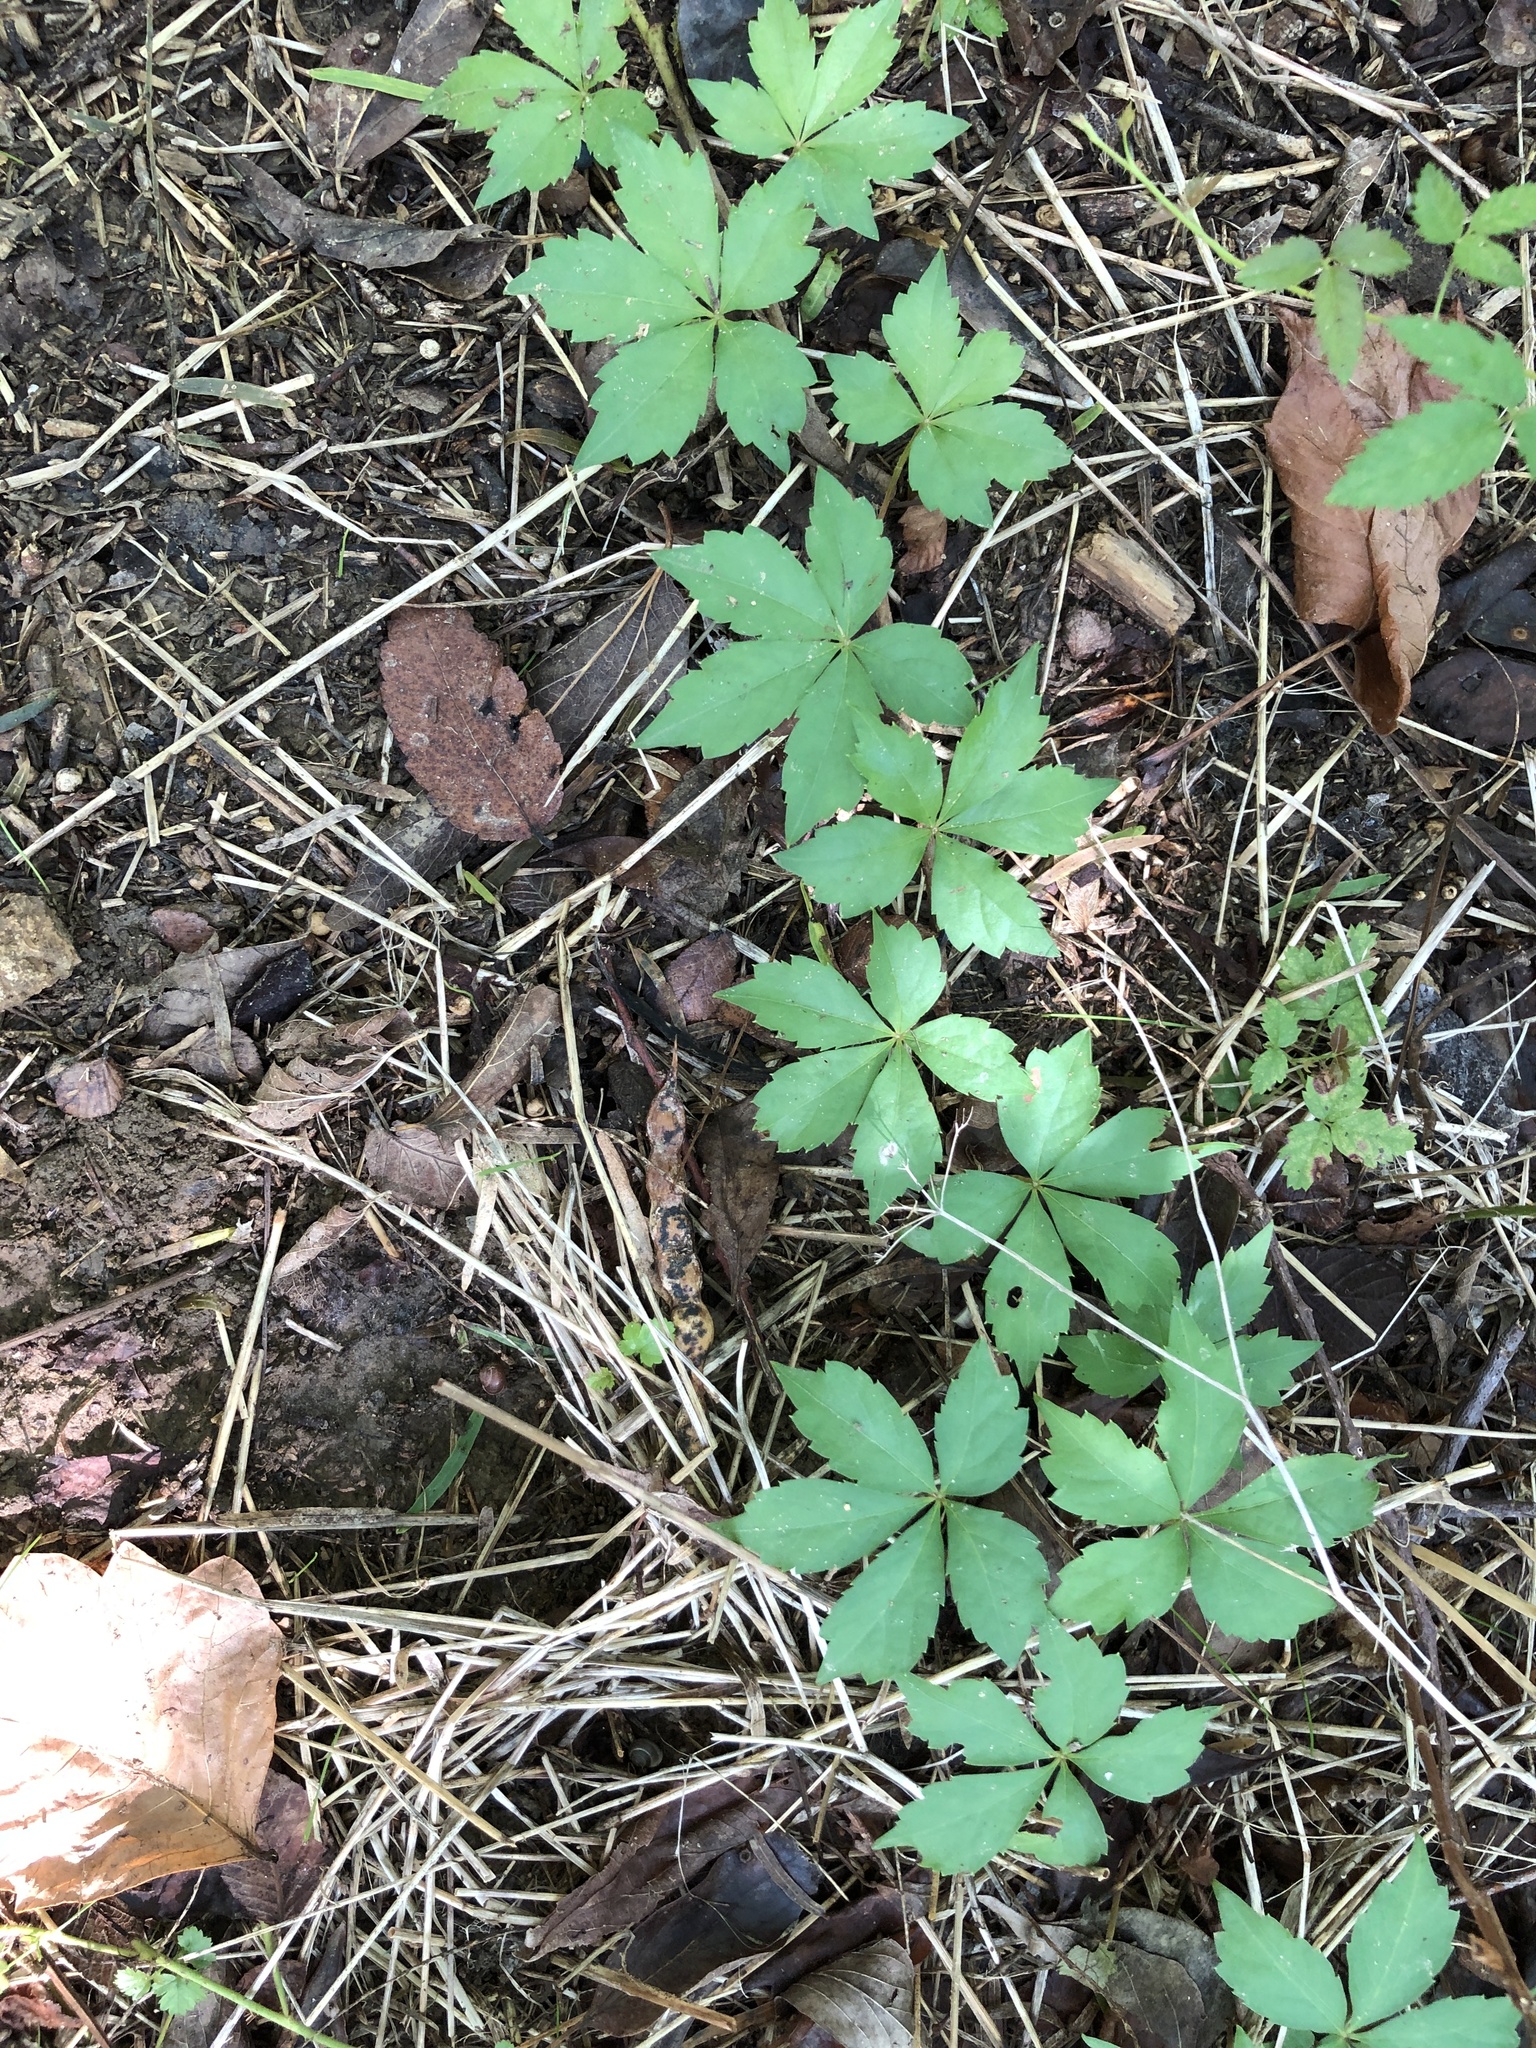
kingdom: Plantae
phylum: Tracheophyta
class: Magnoliopsida
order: Vitales
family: Vitaceae
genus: Parthenocissus
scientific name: Parthenocissus quinquefolia
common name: Virginia-creeper
